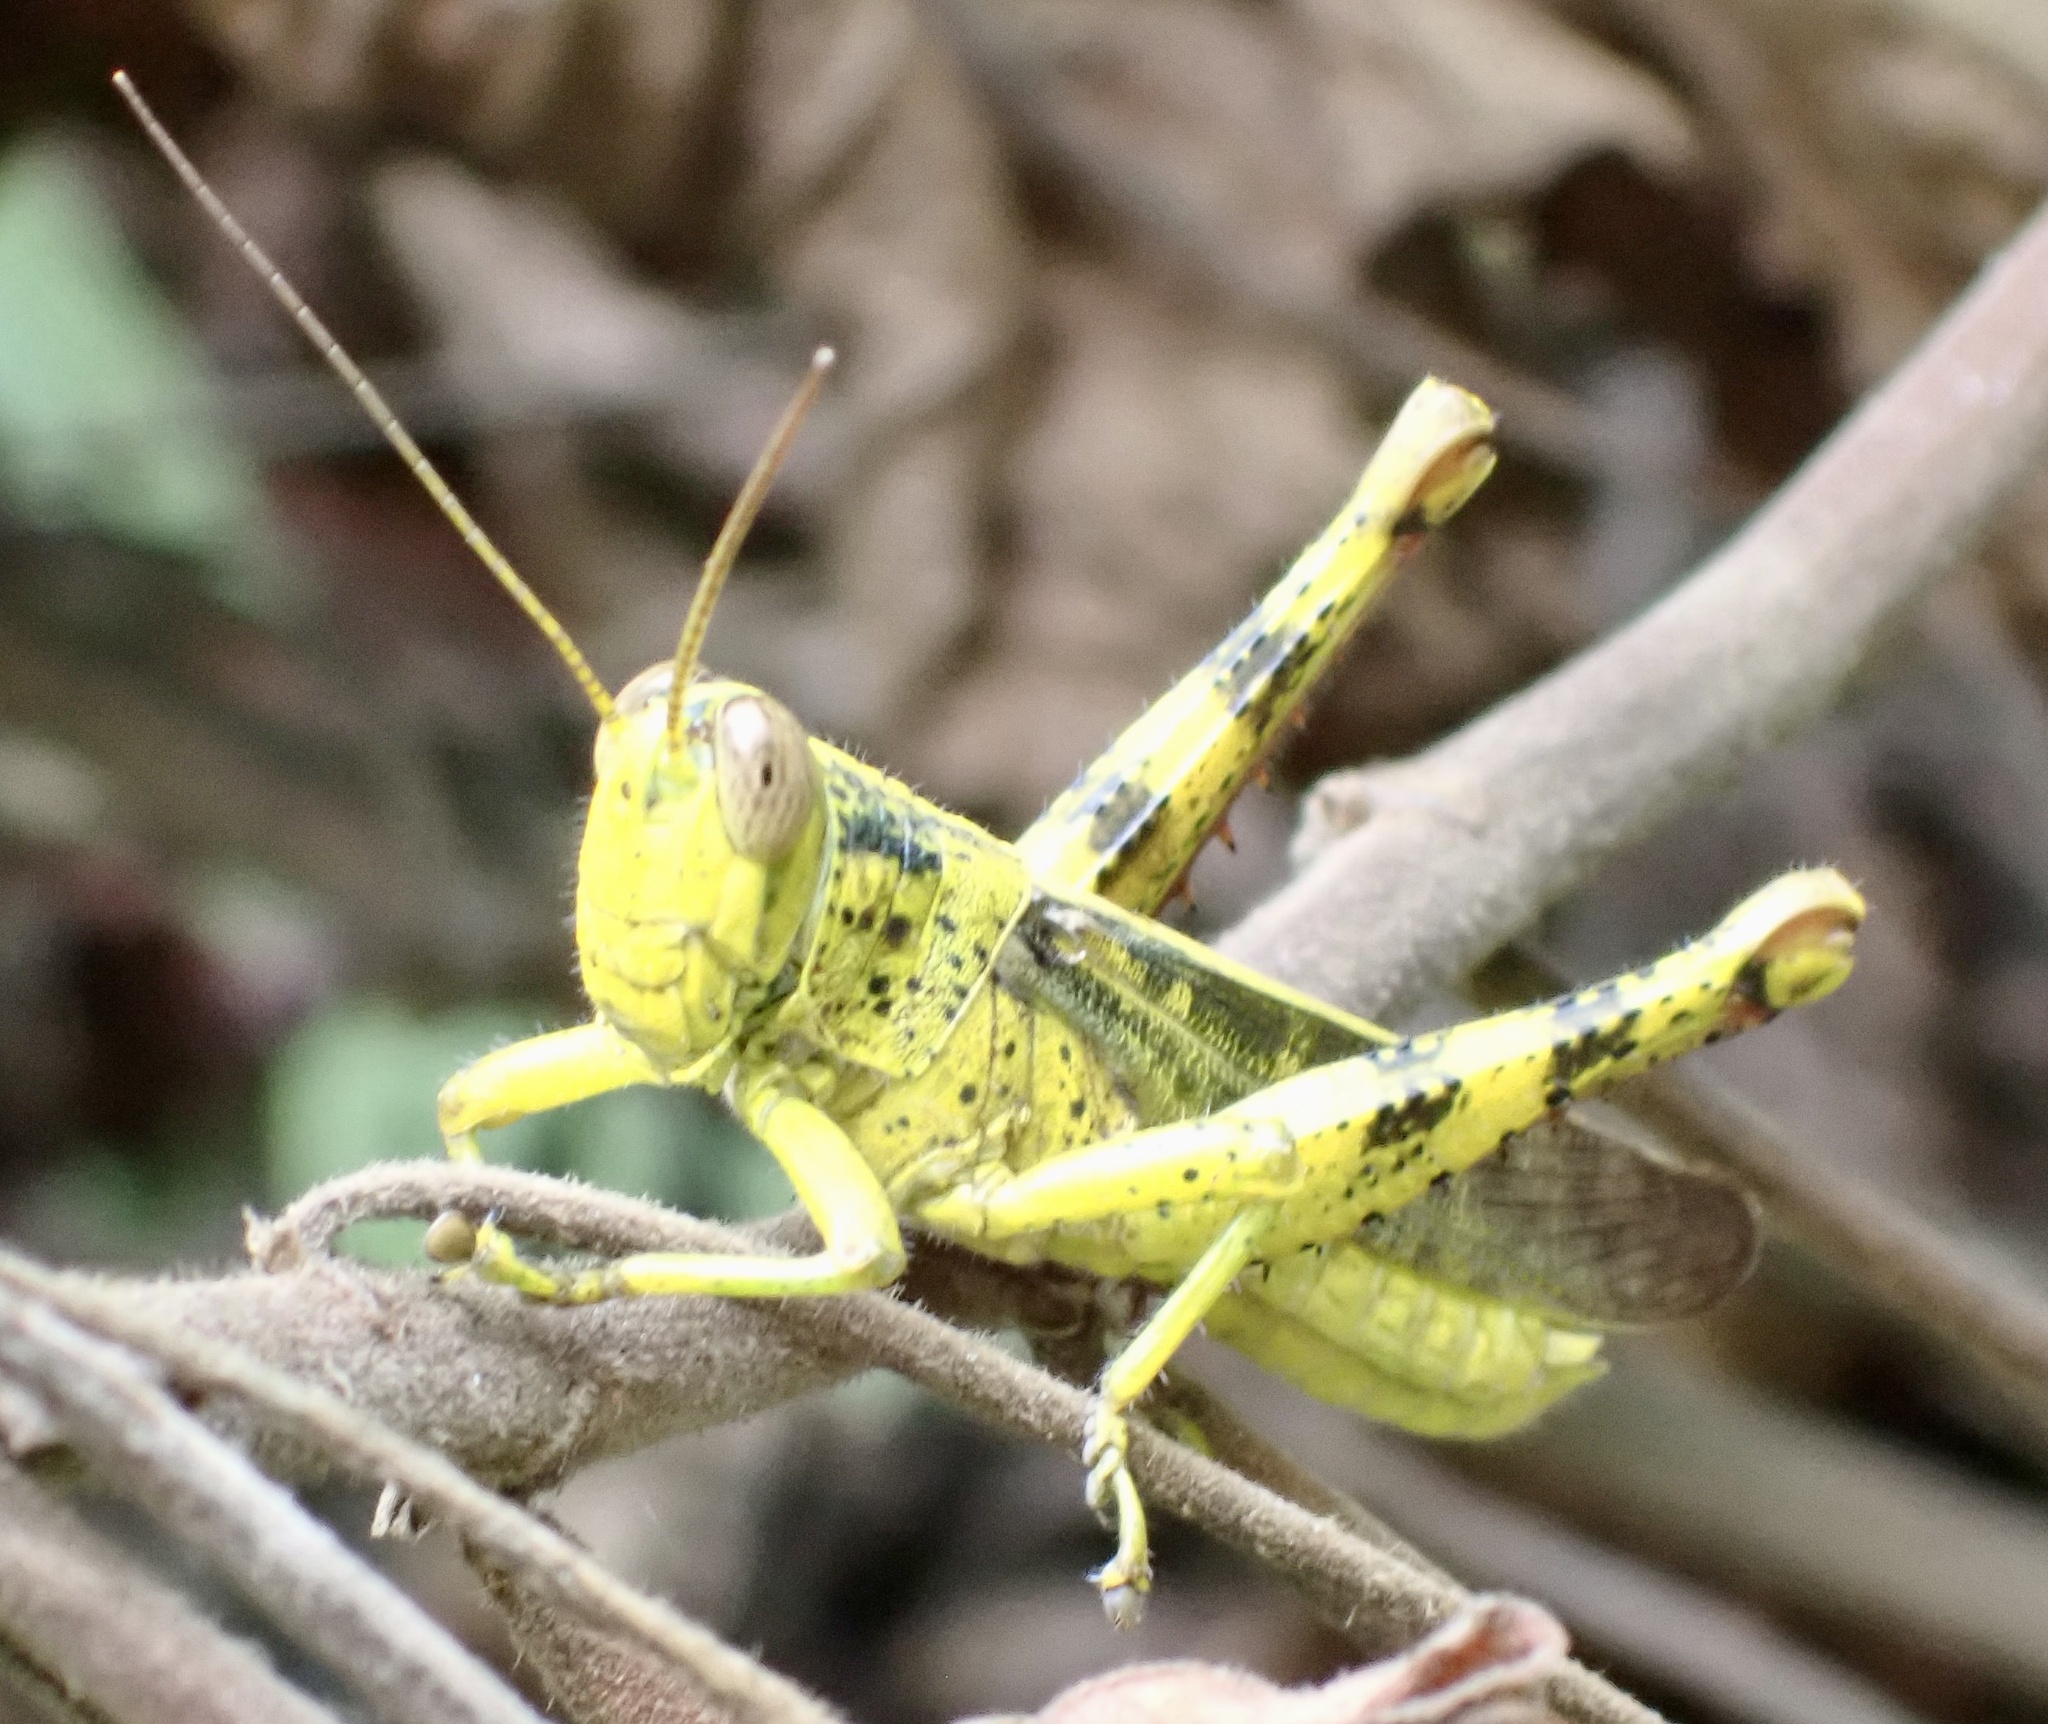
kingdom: Animalia
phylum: Arthropoda
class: Insecta
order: Orthoptera
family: Acrididae
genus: Valanga
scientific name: Valanga nigricornis
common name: Javanese bird grasshopper
